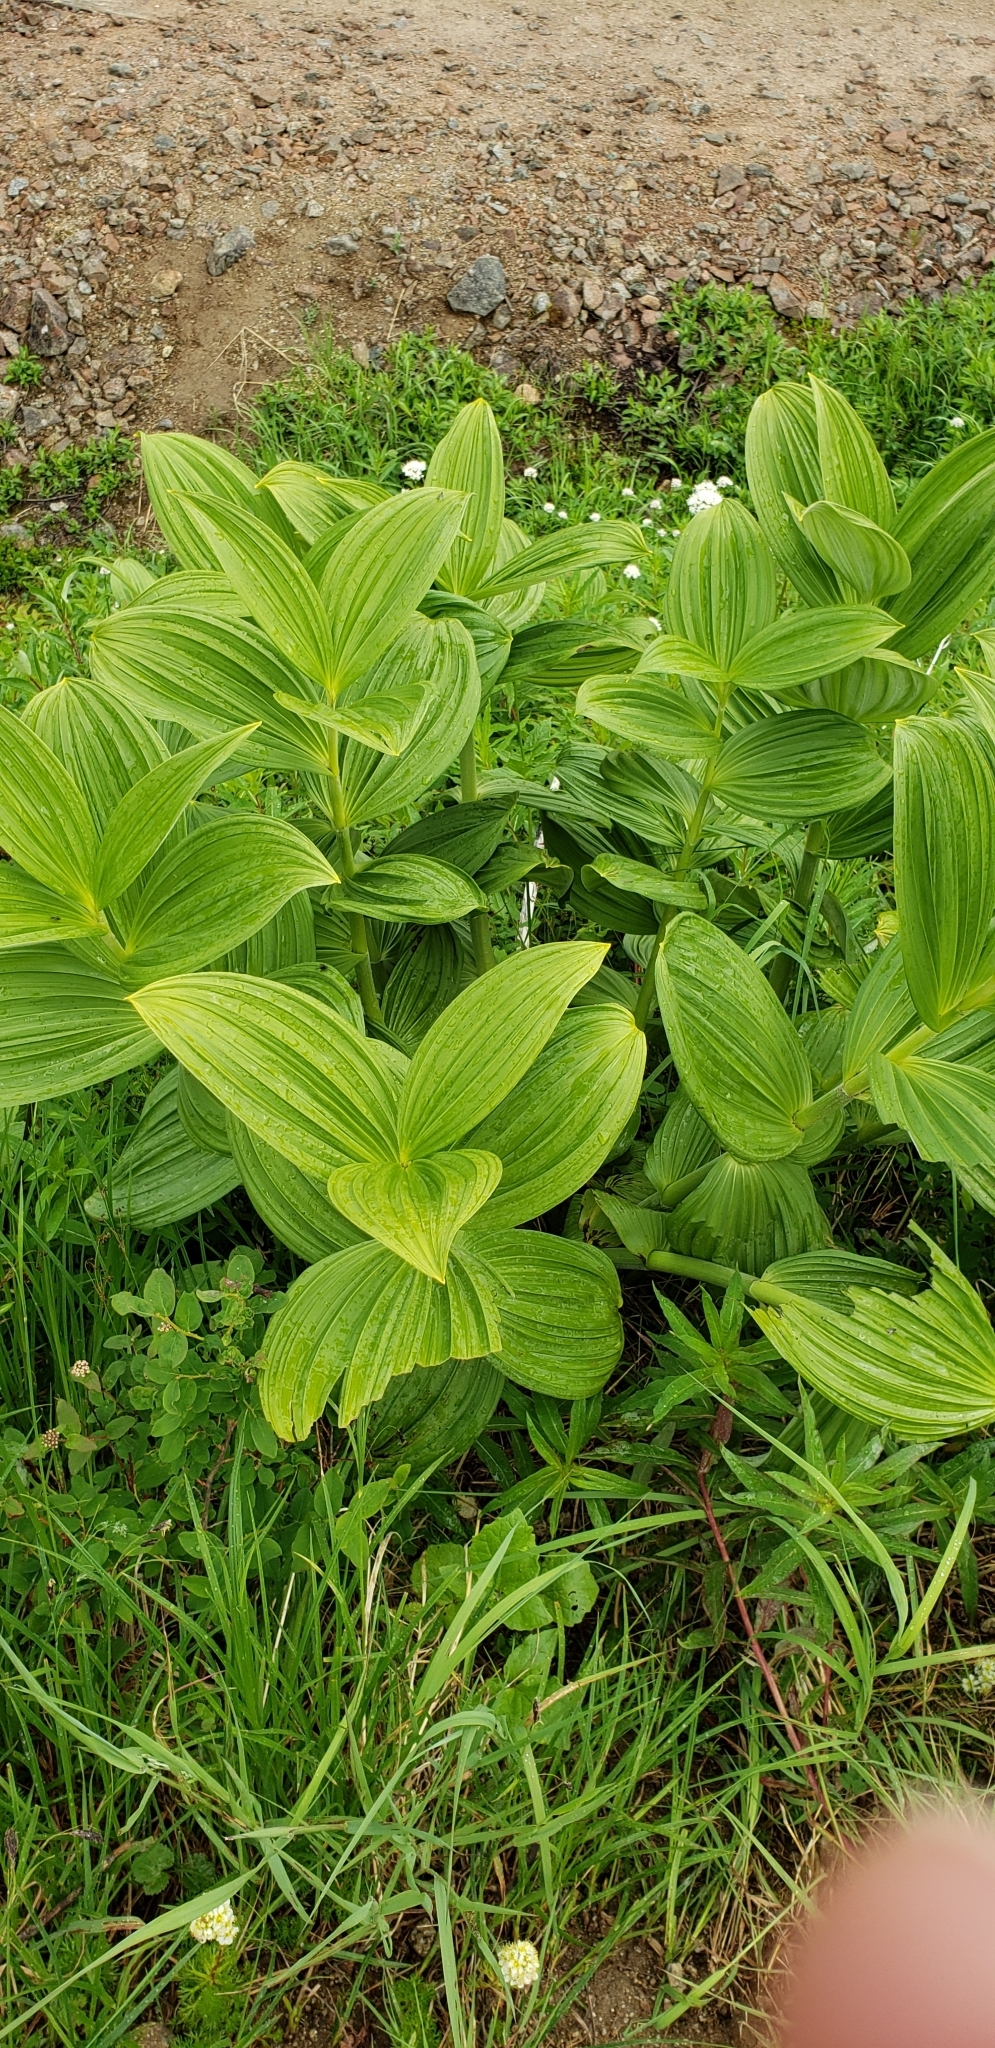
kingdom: Plantae
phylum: Tracheophyta
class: Liliopsida
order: Liliales
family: Melanthiaceae
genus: Veratrum
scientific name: Veratrum viride
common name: American false hellebore
